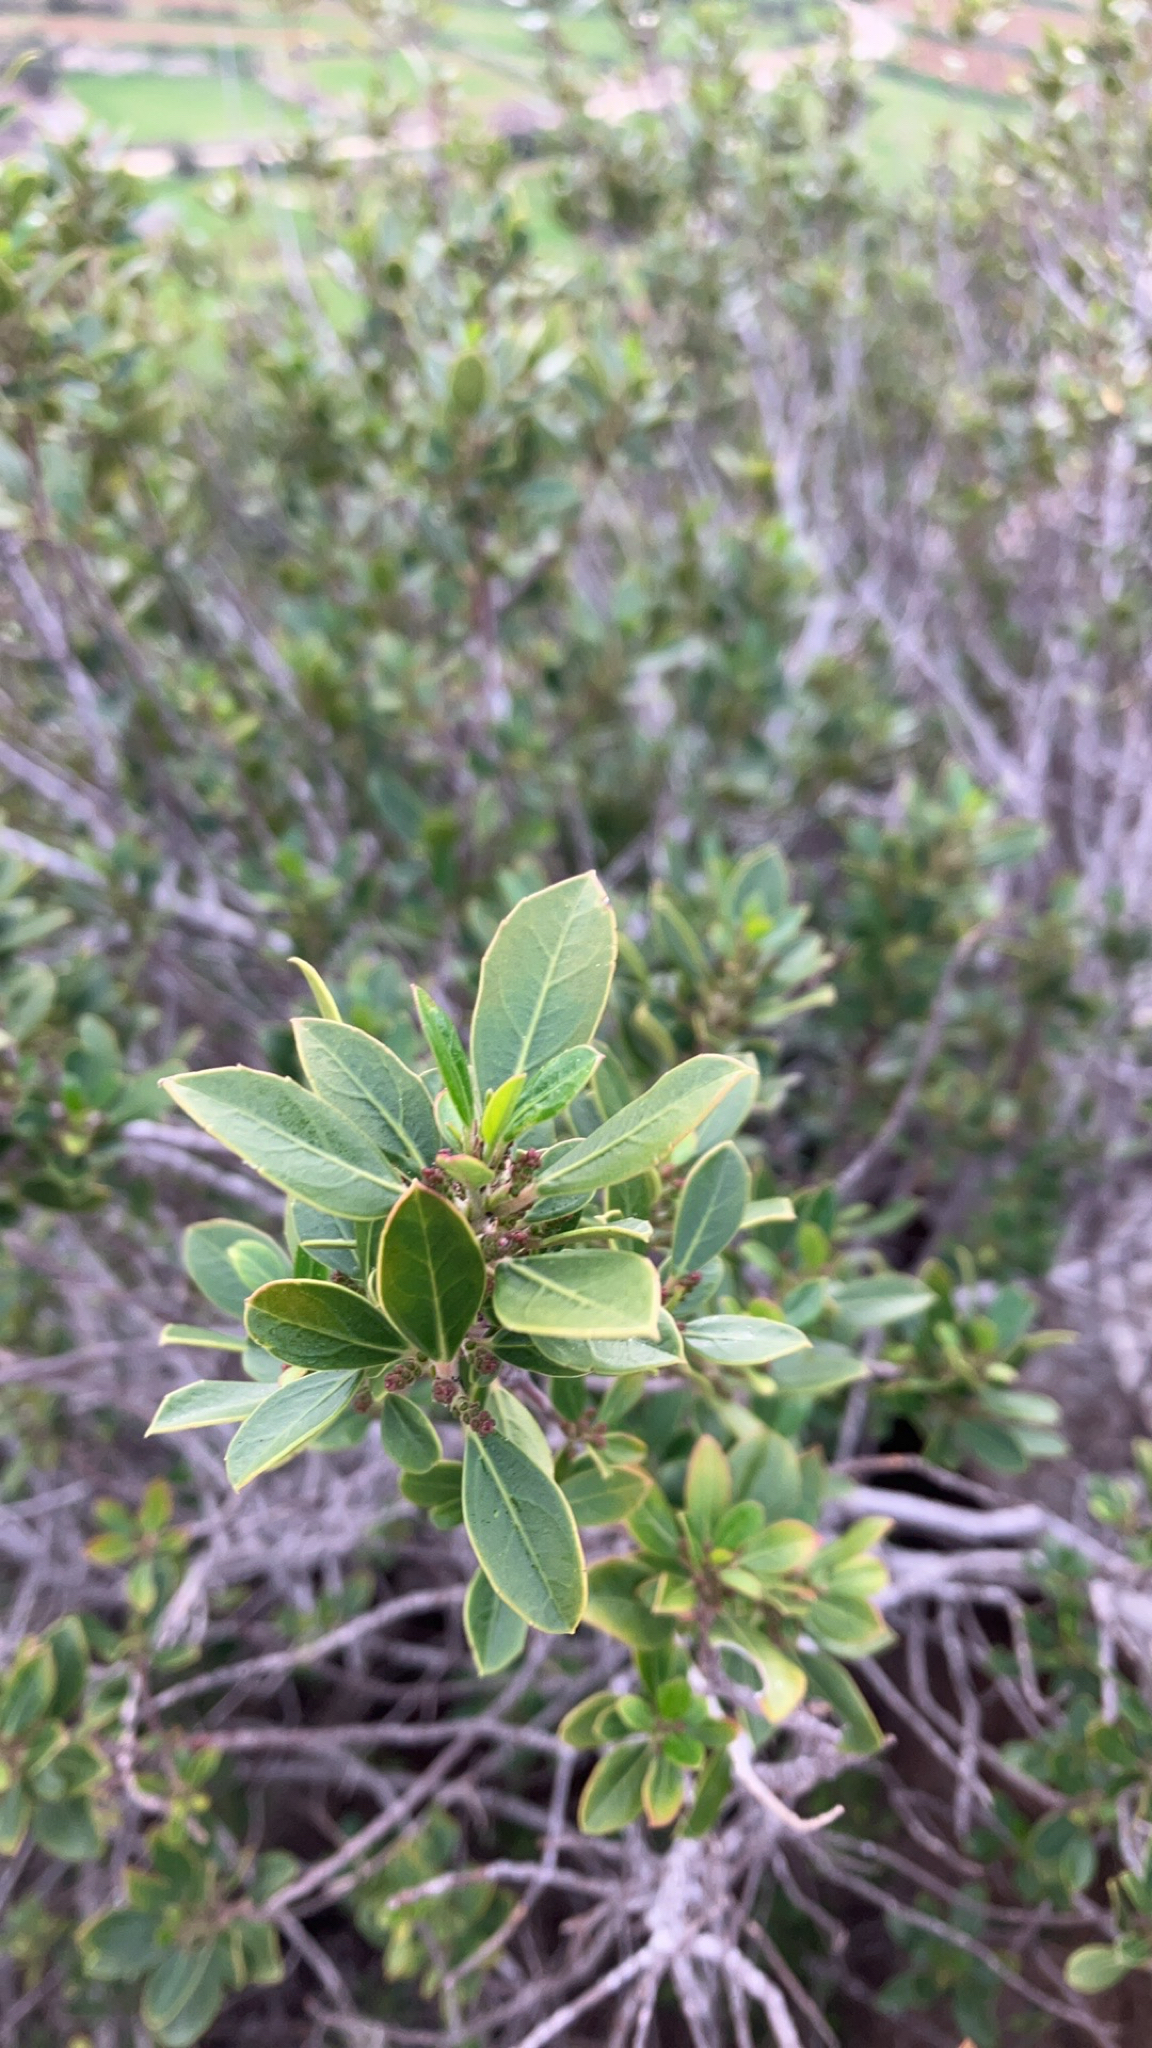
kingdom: Plantae
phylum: Tracheophyta
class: Magnoliopsida
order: Rosales
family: Rhamnaceae
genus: Rhamnus
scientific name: Rhamnus alaternus
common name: Mediterranean buckthorn
